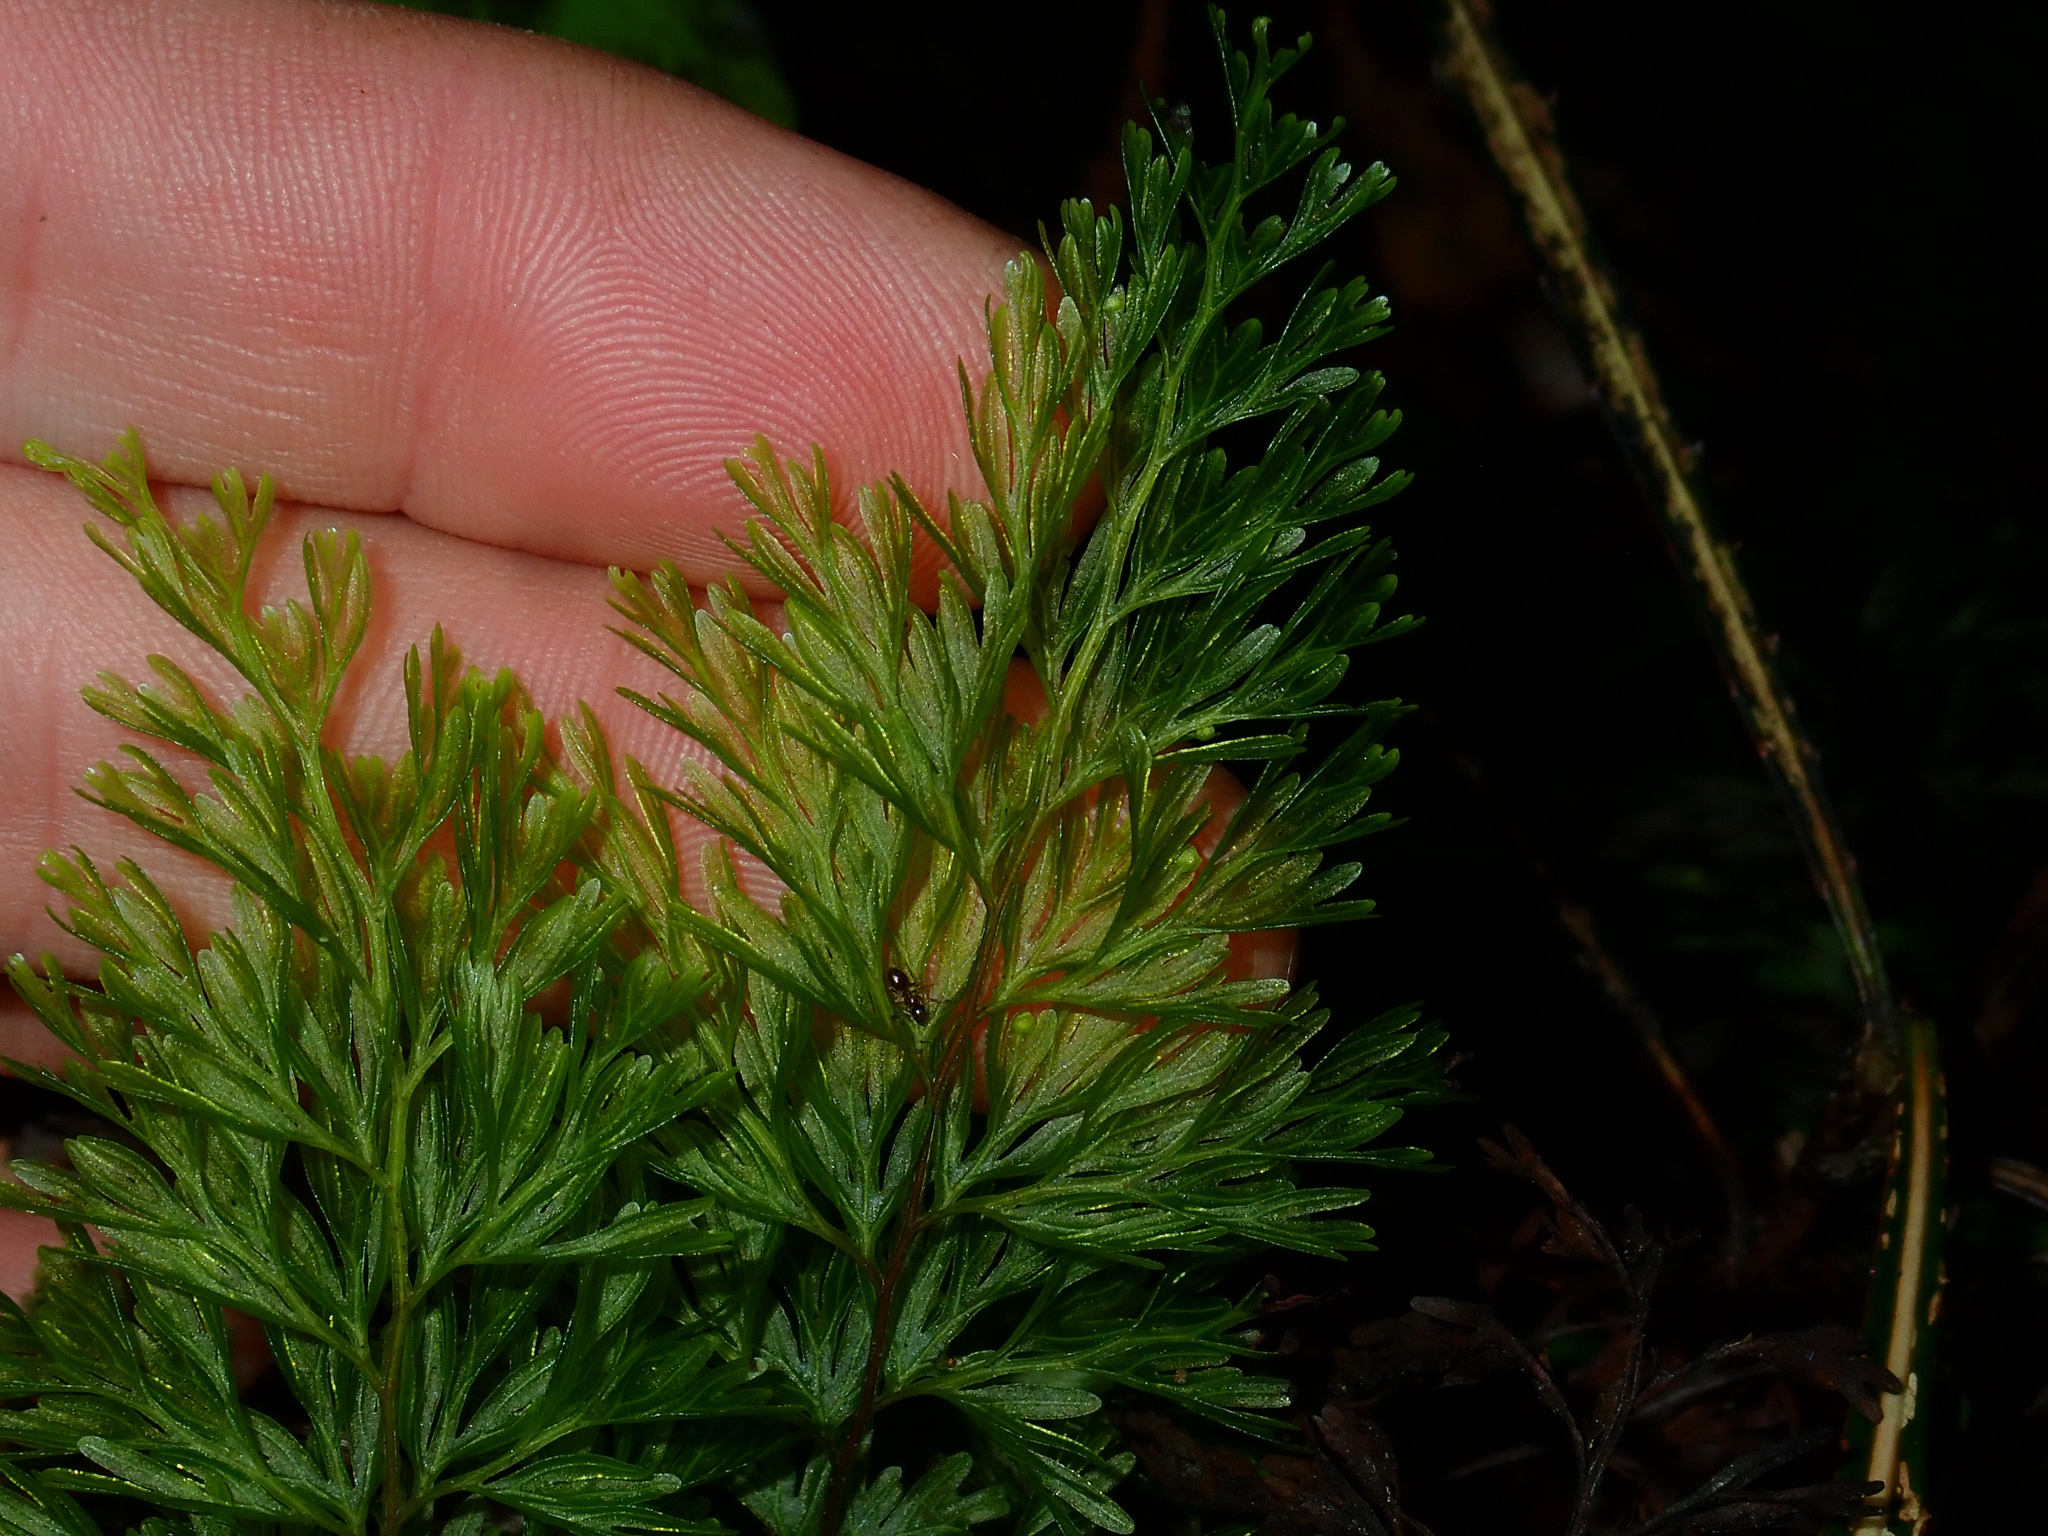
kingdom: Plantae
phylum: Tracheophyta
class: Polypodiopsida
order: Hymenophyllales
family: Hymenophyllaceae
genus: Hymenophyllum
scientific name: Hymenophyllum demissum
